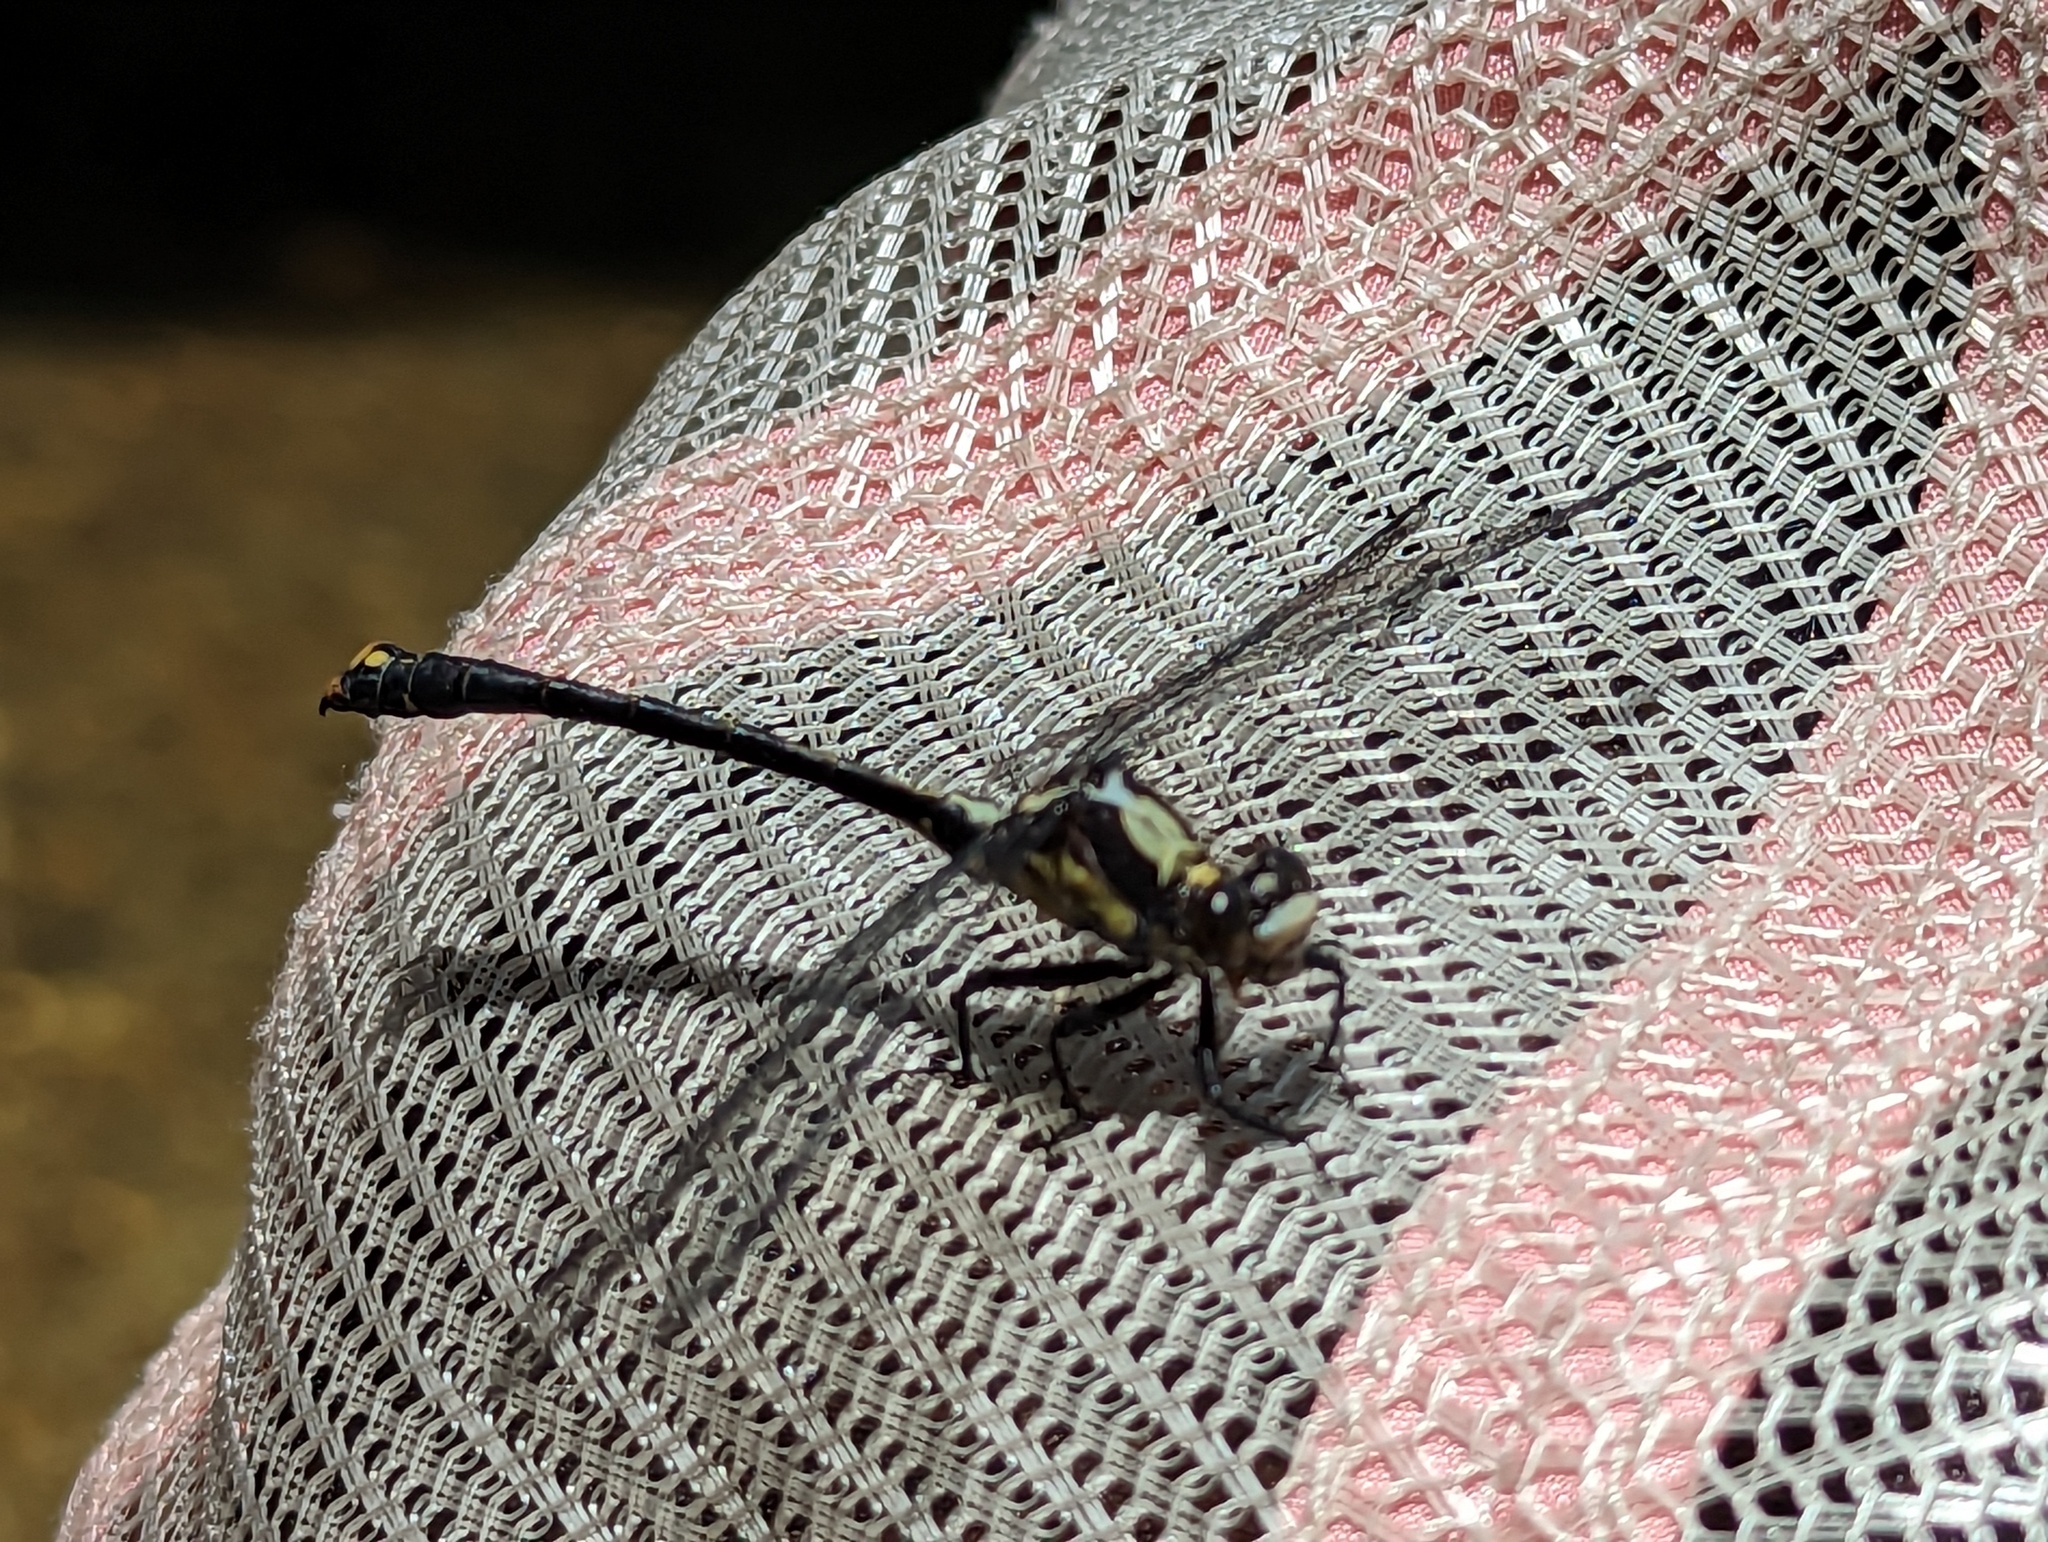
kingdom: Animalia
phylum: Arthropoda
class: Insecta
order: Odonata
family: Gomphidae
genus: Octogomphus
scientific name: Octogomphus specularis
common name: Grappletail
